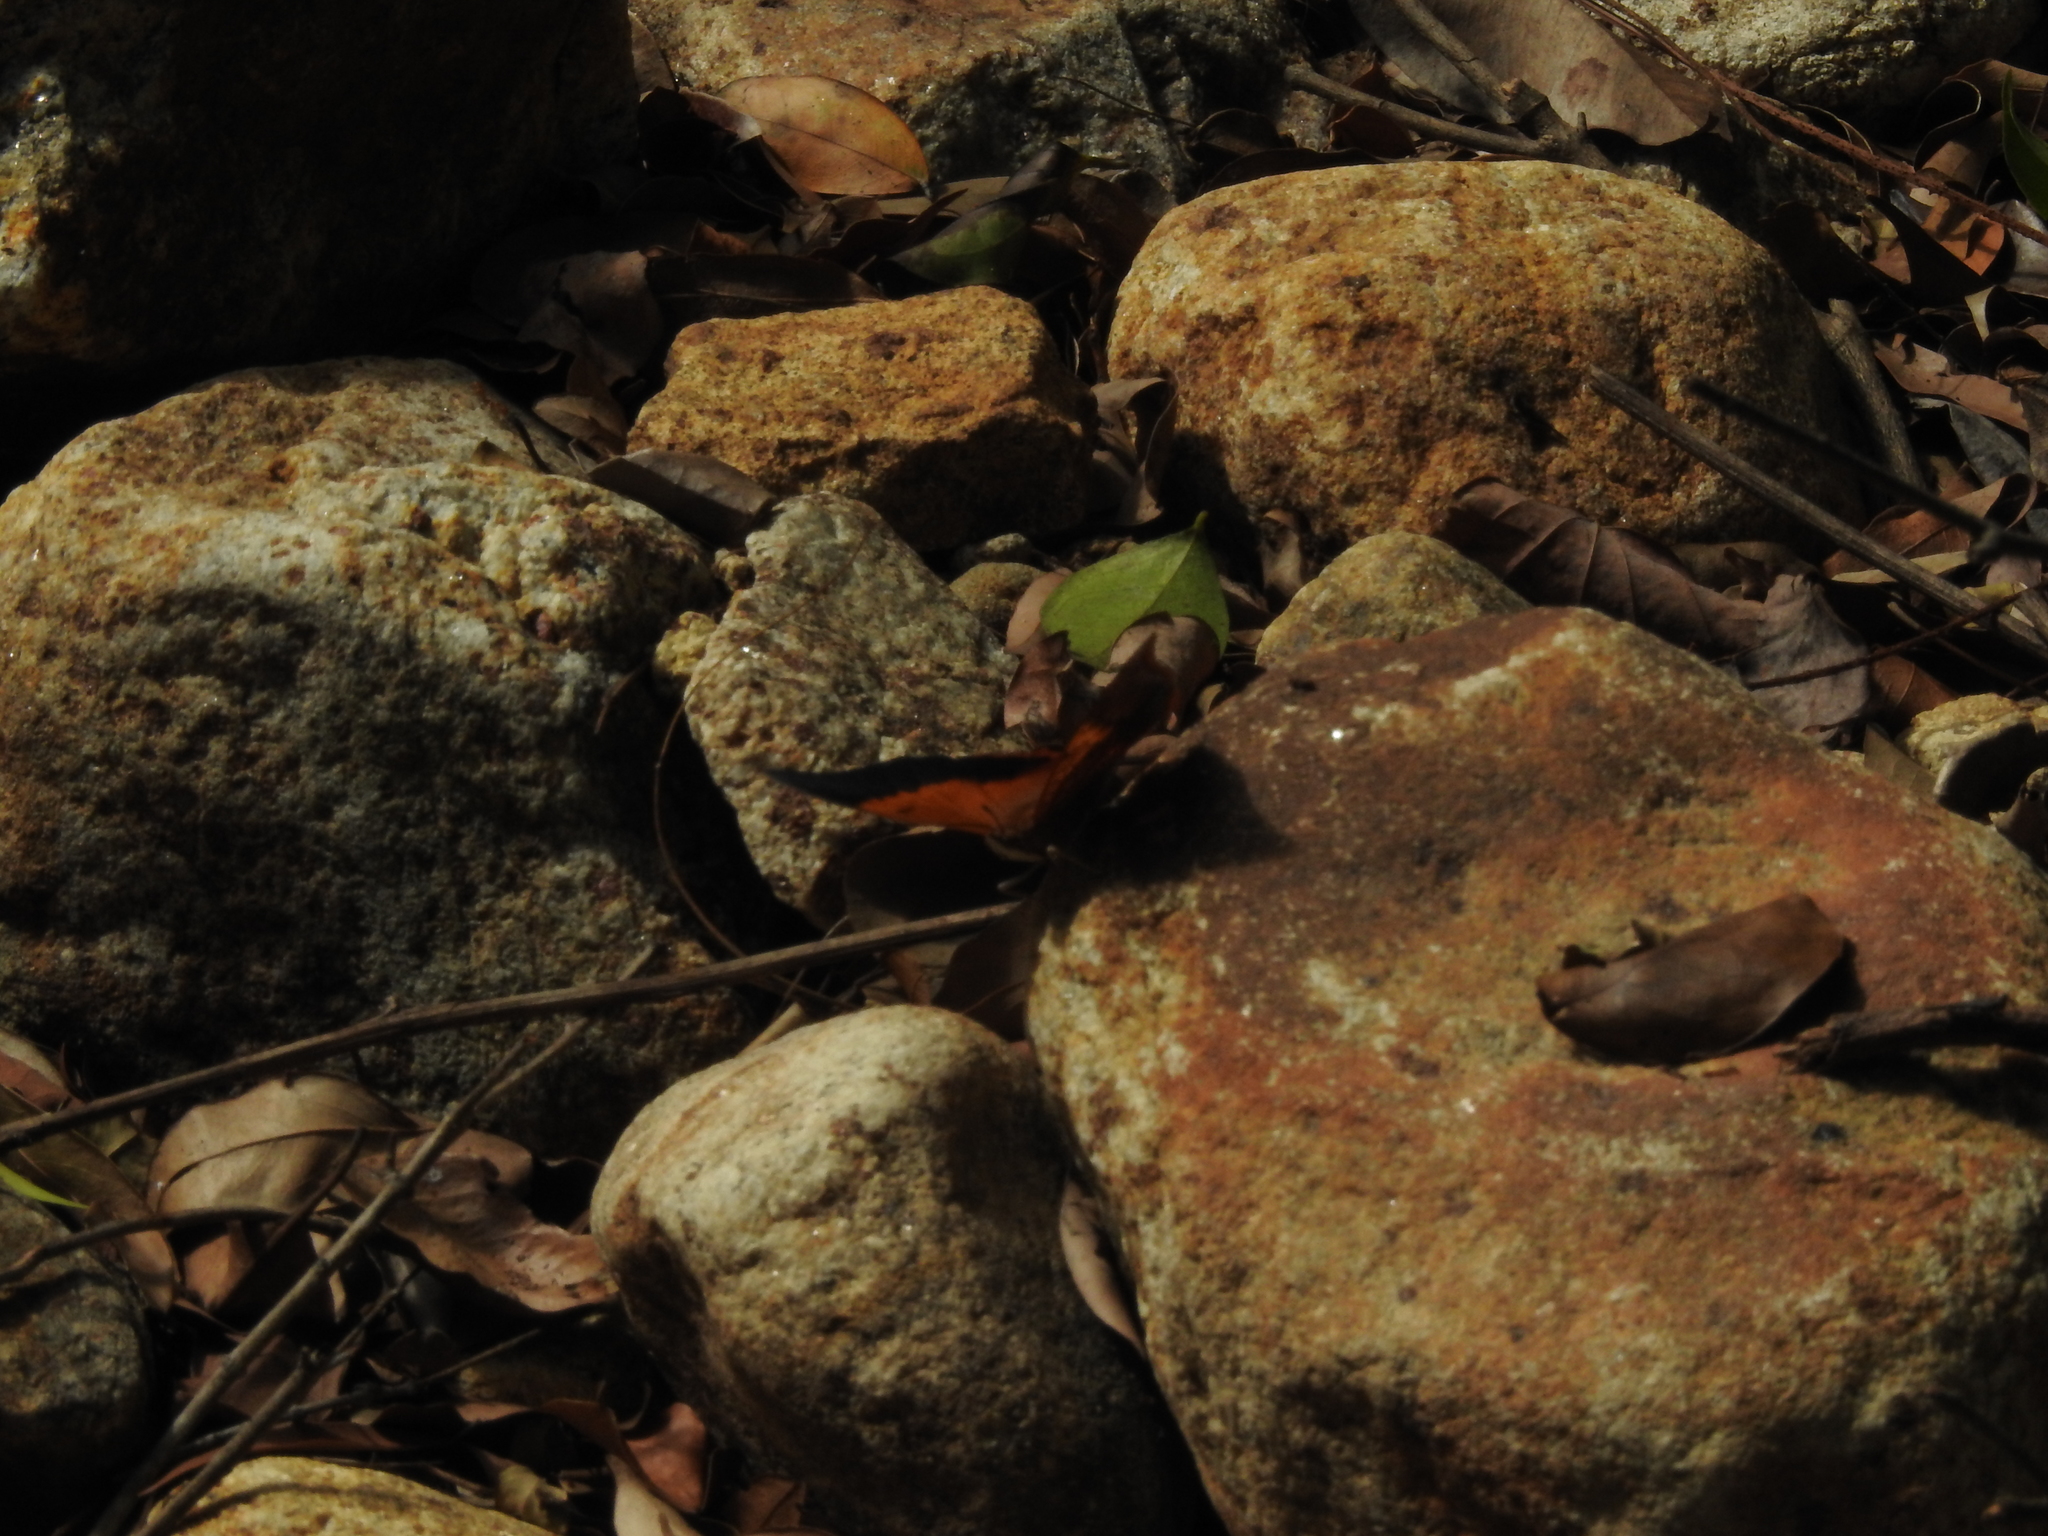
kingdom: Animalia
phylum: Arthropoda
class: Insecta
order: Lepidoptera
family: Nymphalidae
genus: Charaxes
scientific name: Charaxes bernardus
